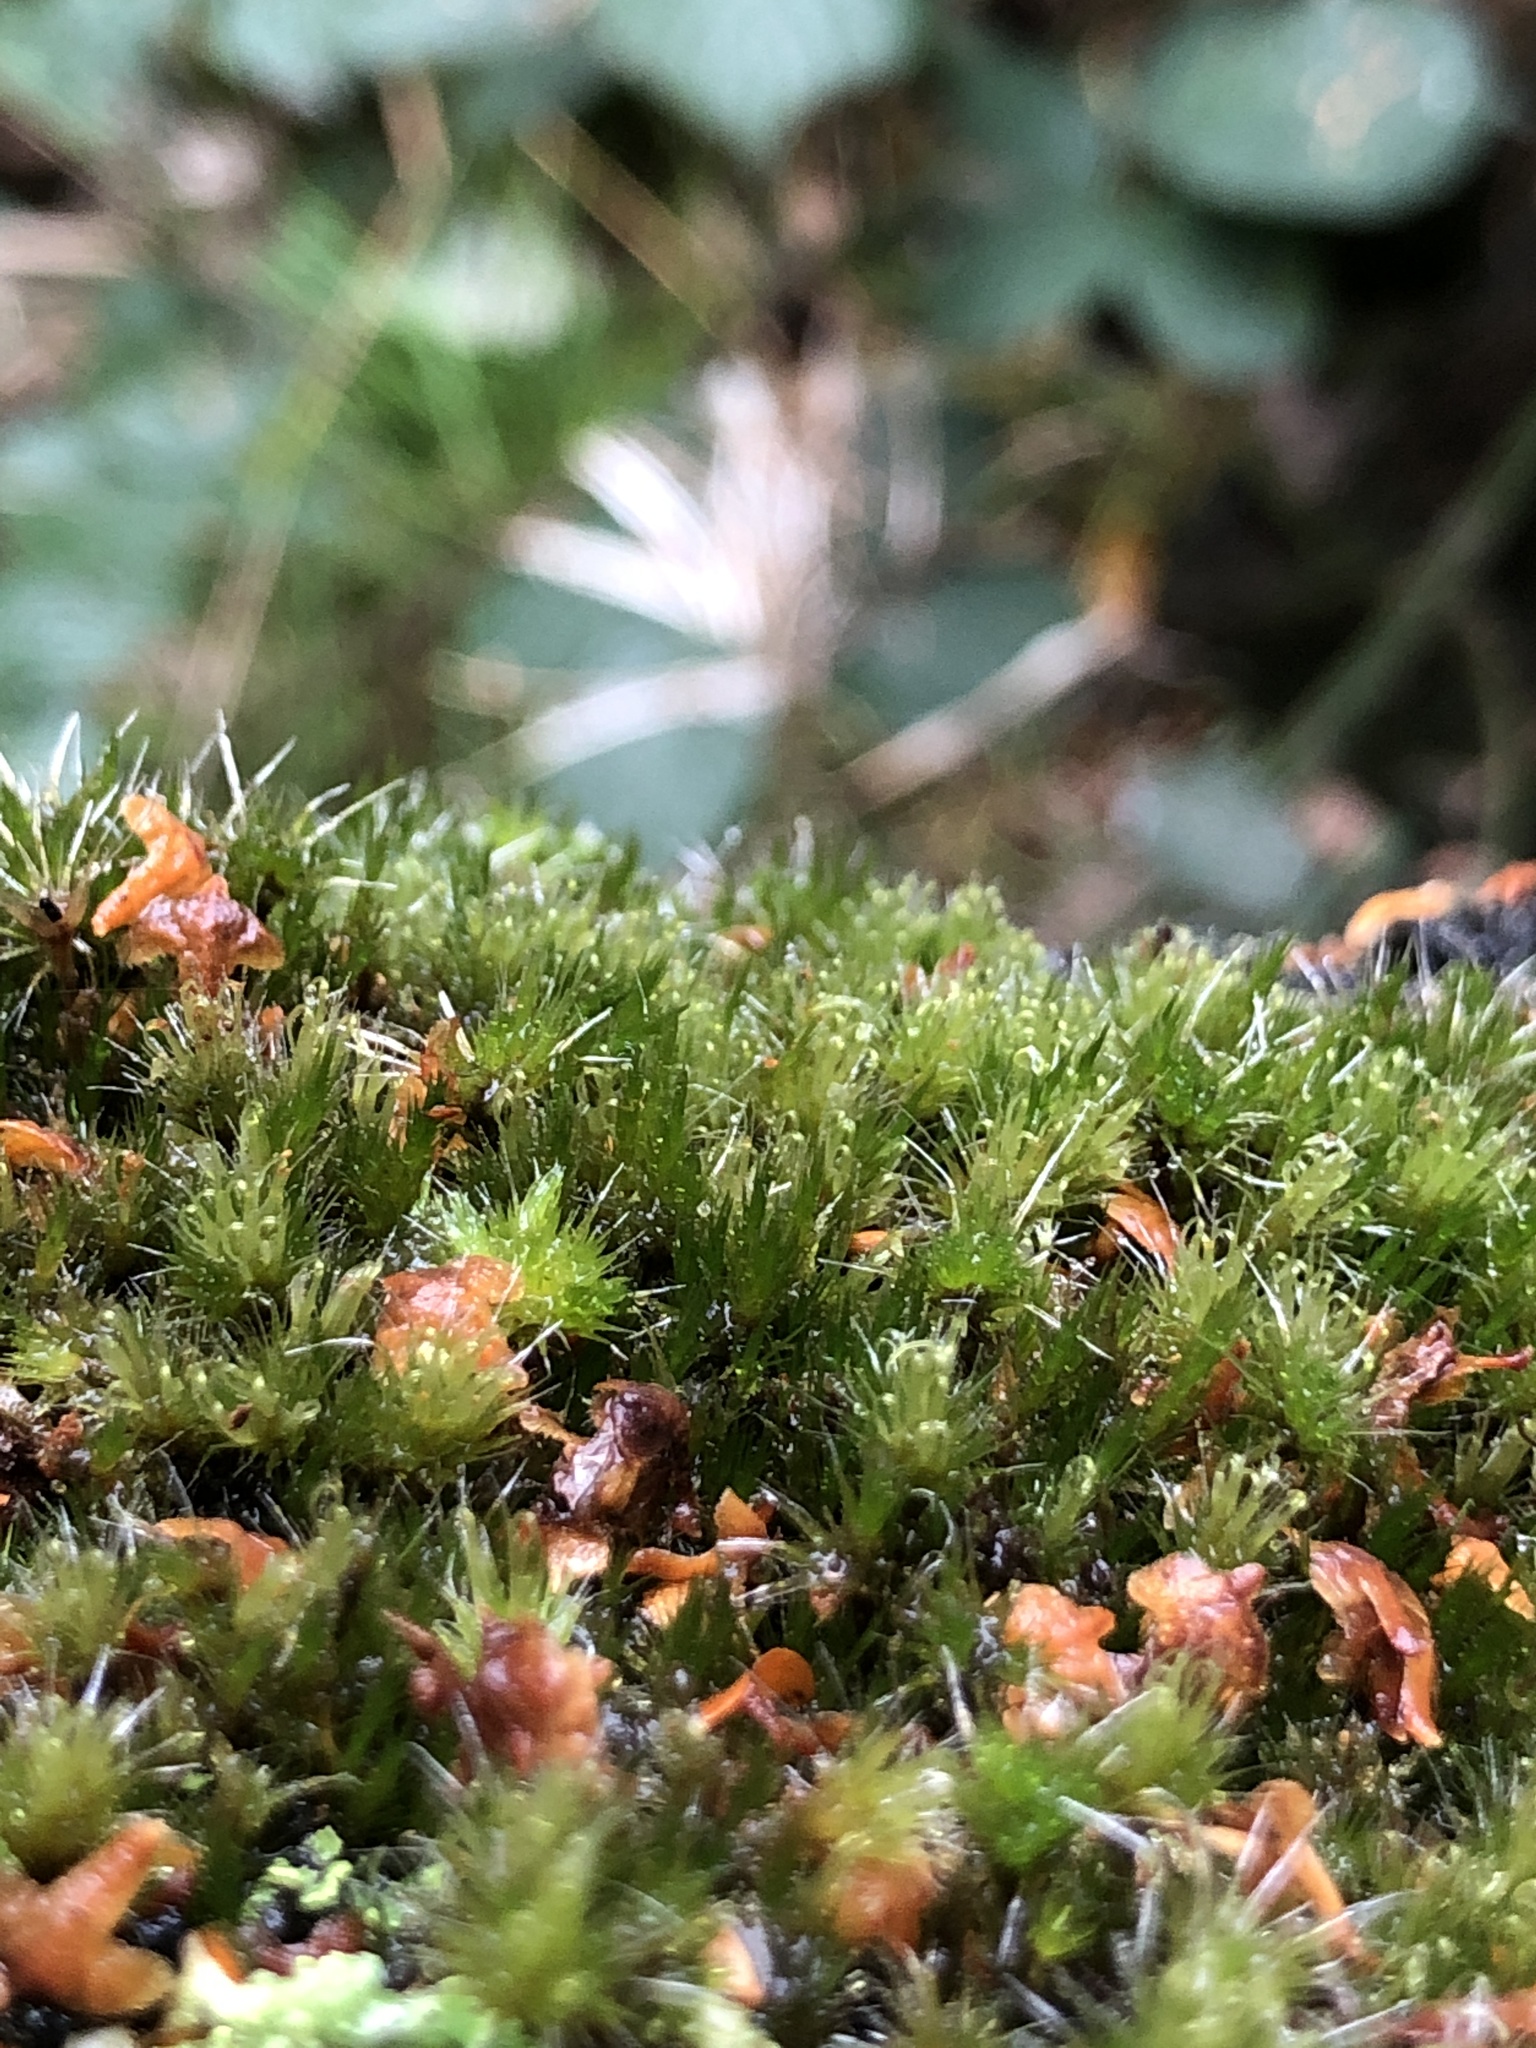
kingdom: Plantae
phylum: Bryophyta
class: Bryopsida
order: Dicranales
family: Leucobryaceae
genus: Campylopus
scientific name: Campylopus introflexus
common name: Heath star moss
